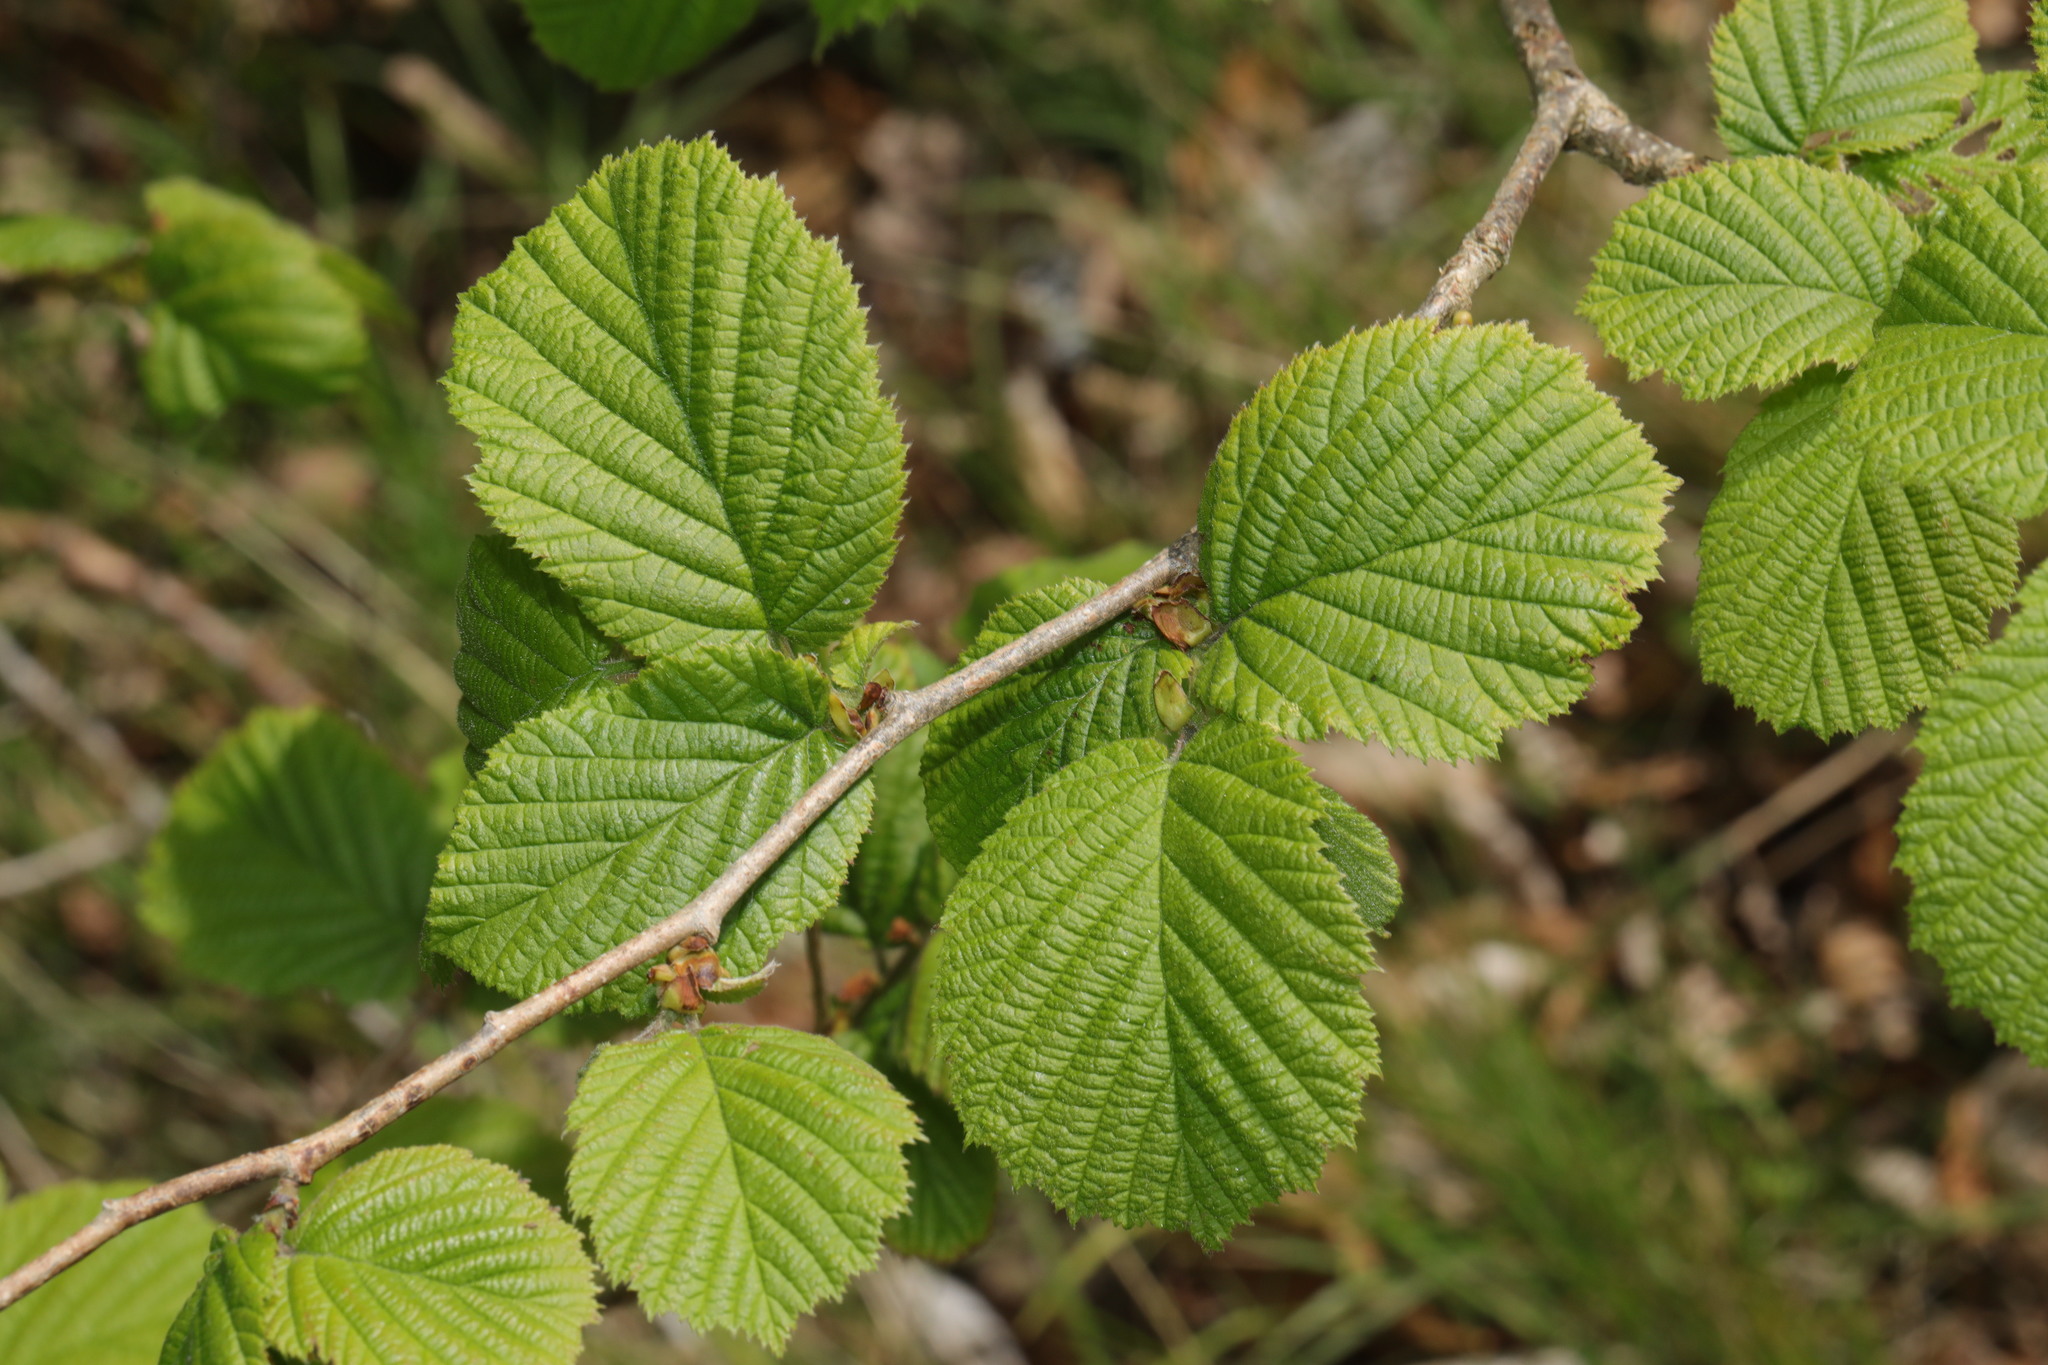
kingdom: Plantae
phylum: Tracheophyta
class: Magnoliopsida
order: Fagales
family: Betulaceae
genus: Corylus
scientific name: Corylus avellana
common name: European hazel
